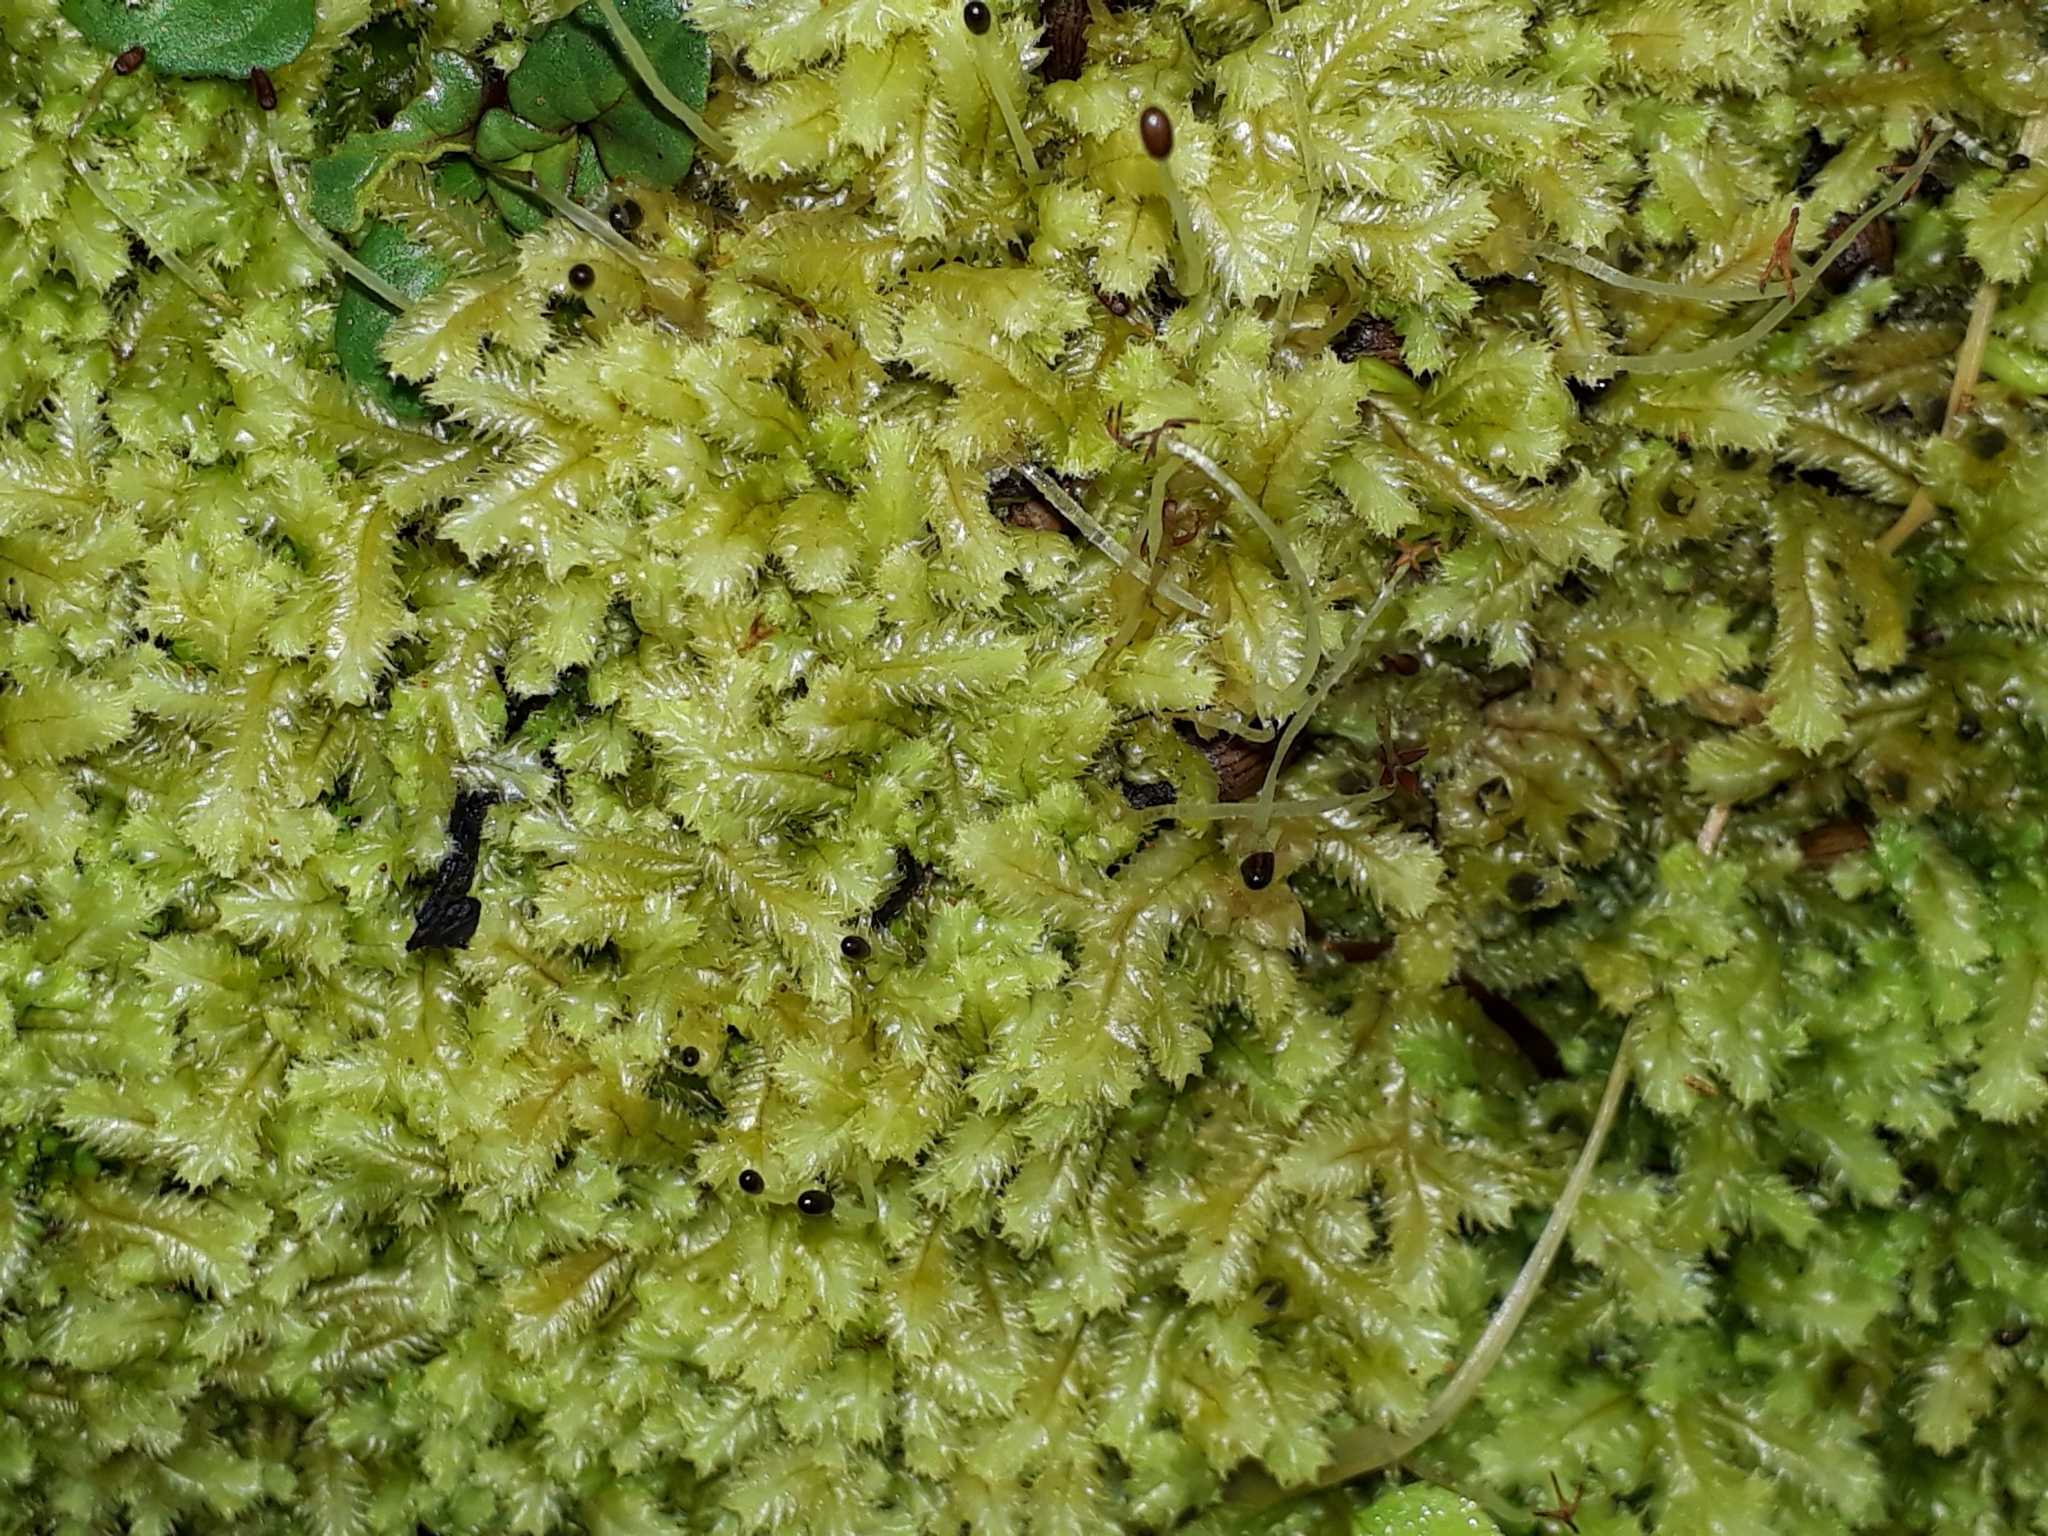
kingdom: Plantae
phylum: Marchantiophyta
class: Jungermanniopsida
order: Jungermanniales
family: Lophocoleaceae
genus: Cryptolophocolea
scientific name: Cryptolophocolea mitteniana
